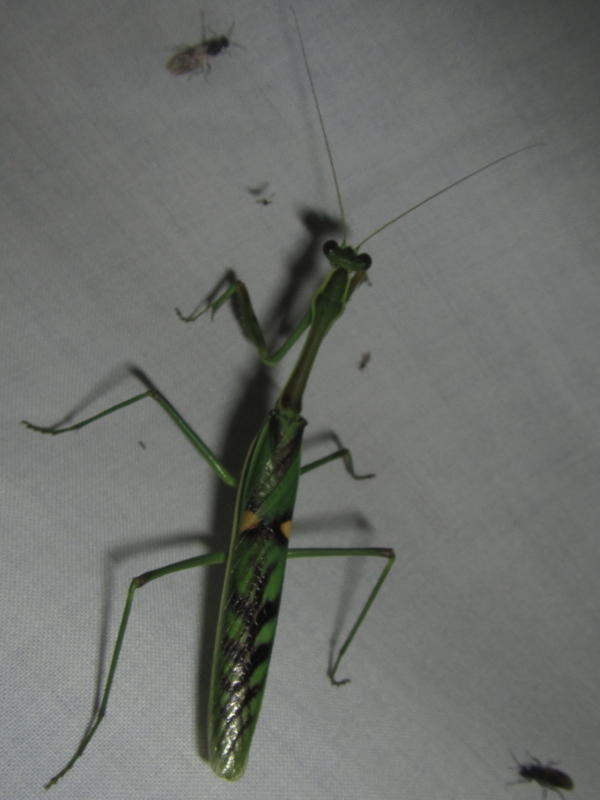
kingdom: Animalia
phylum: Arthropoda
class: Insecta
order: Mantodea
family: Mantidae
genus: Omomantis
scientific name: Omomantis zebrata
